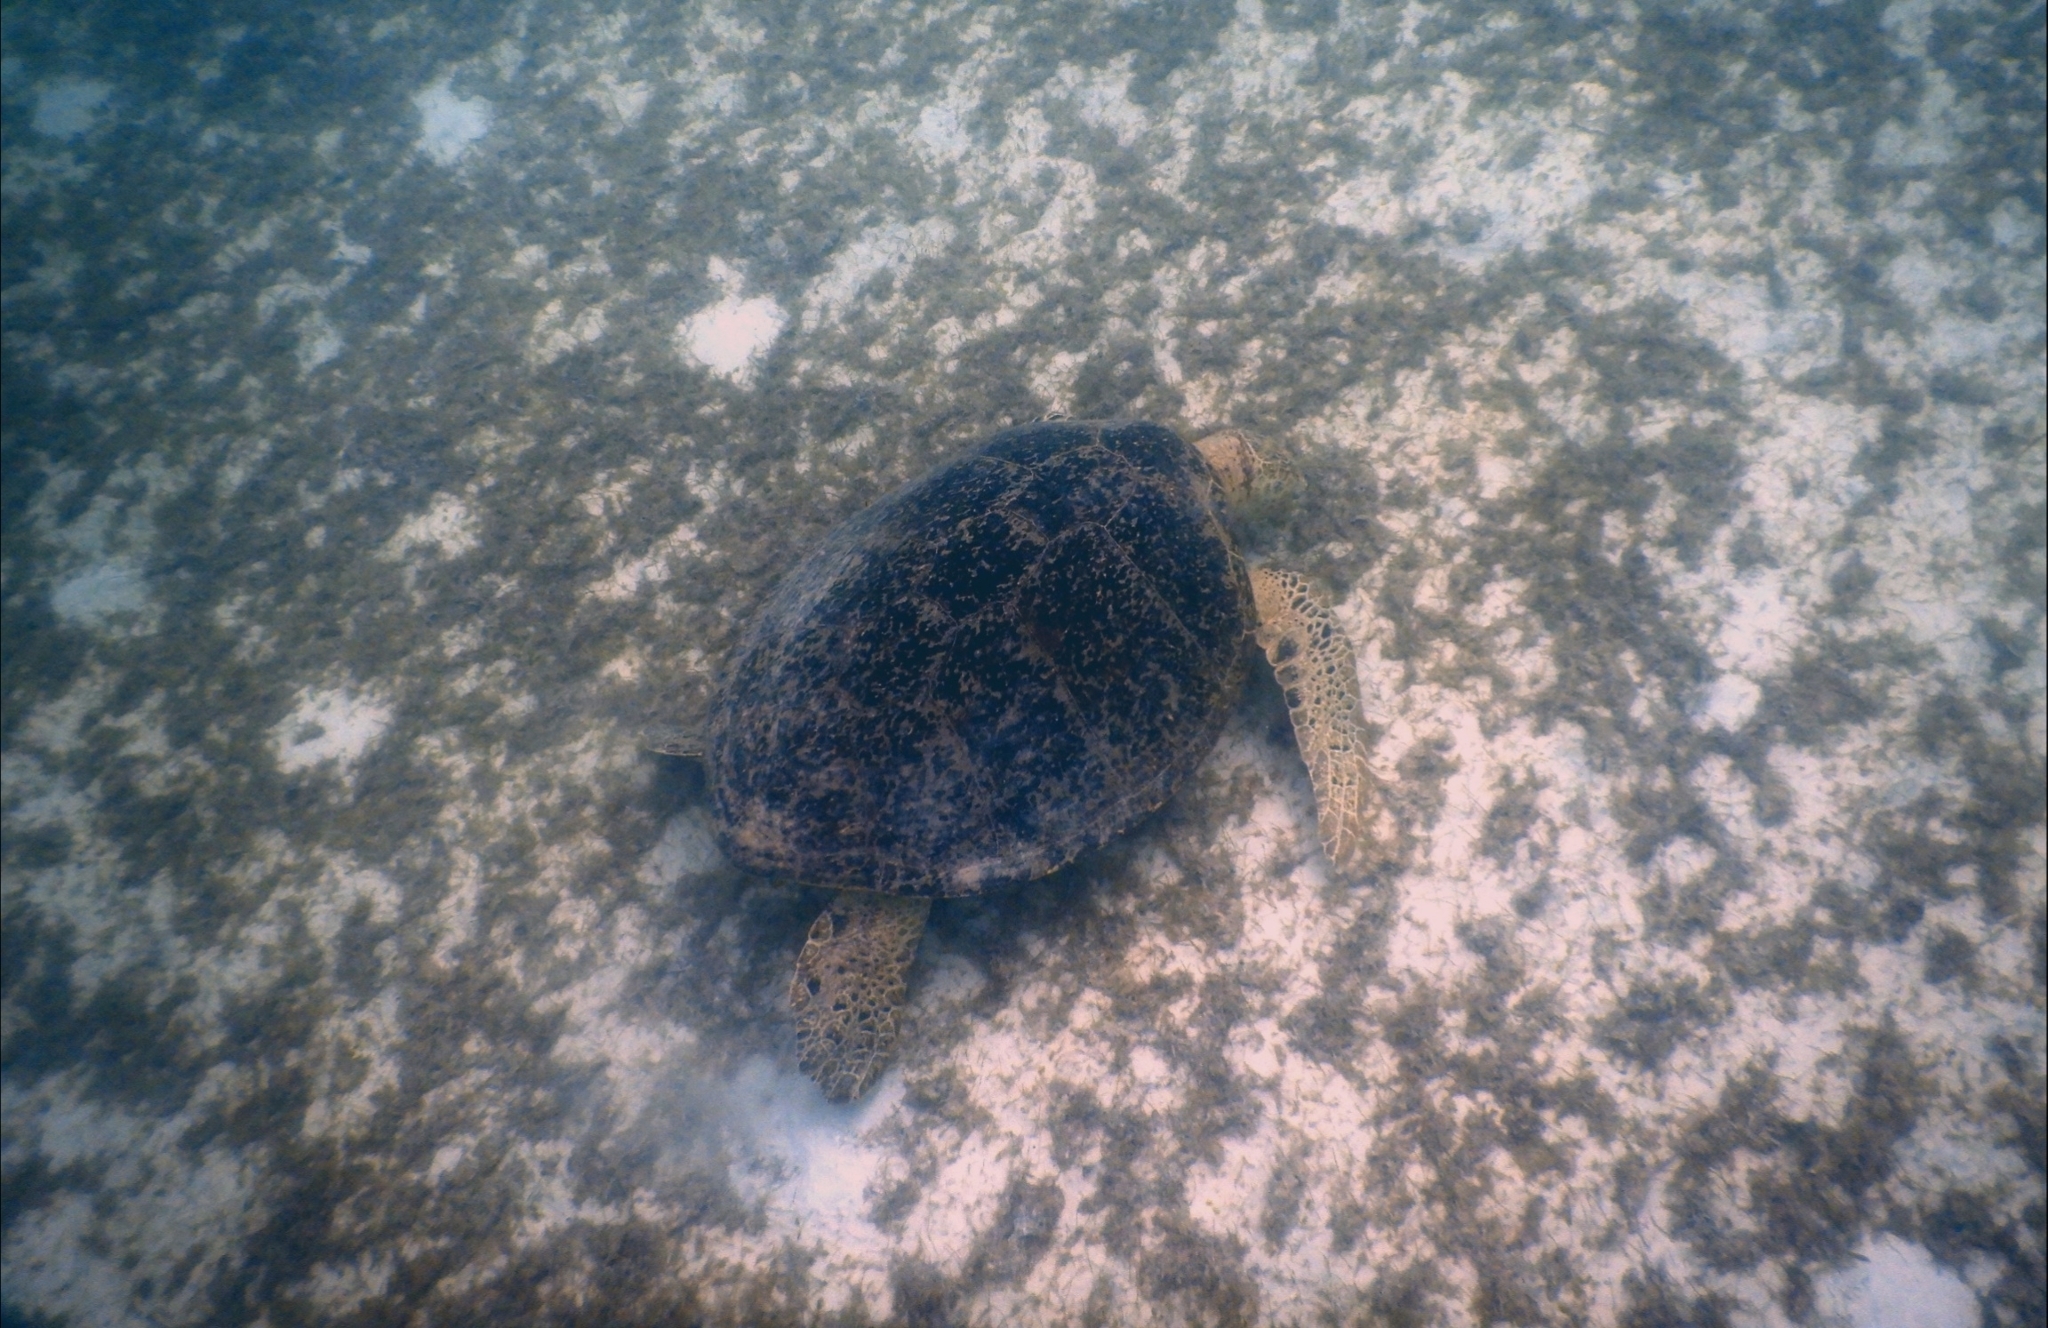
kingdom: Animalia
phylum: Chordata
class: Testudines
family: Cheloniidae
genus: Chelonia
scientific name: Chelonia mydas
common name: Green turtle
